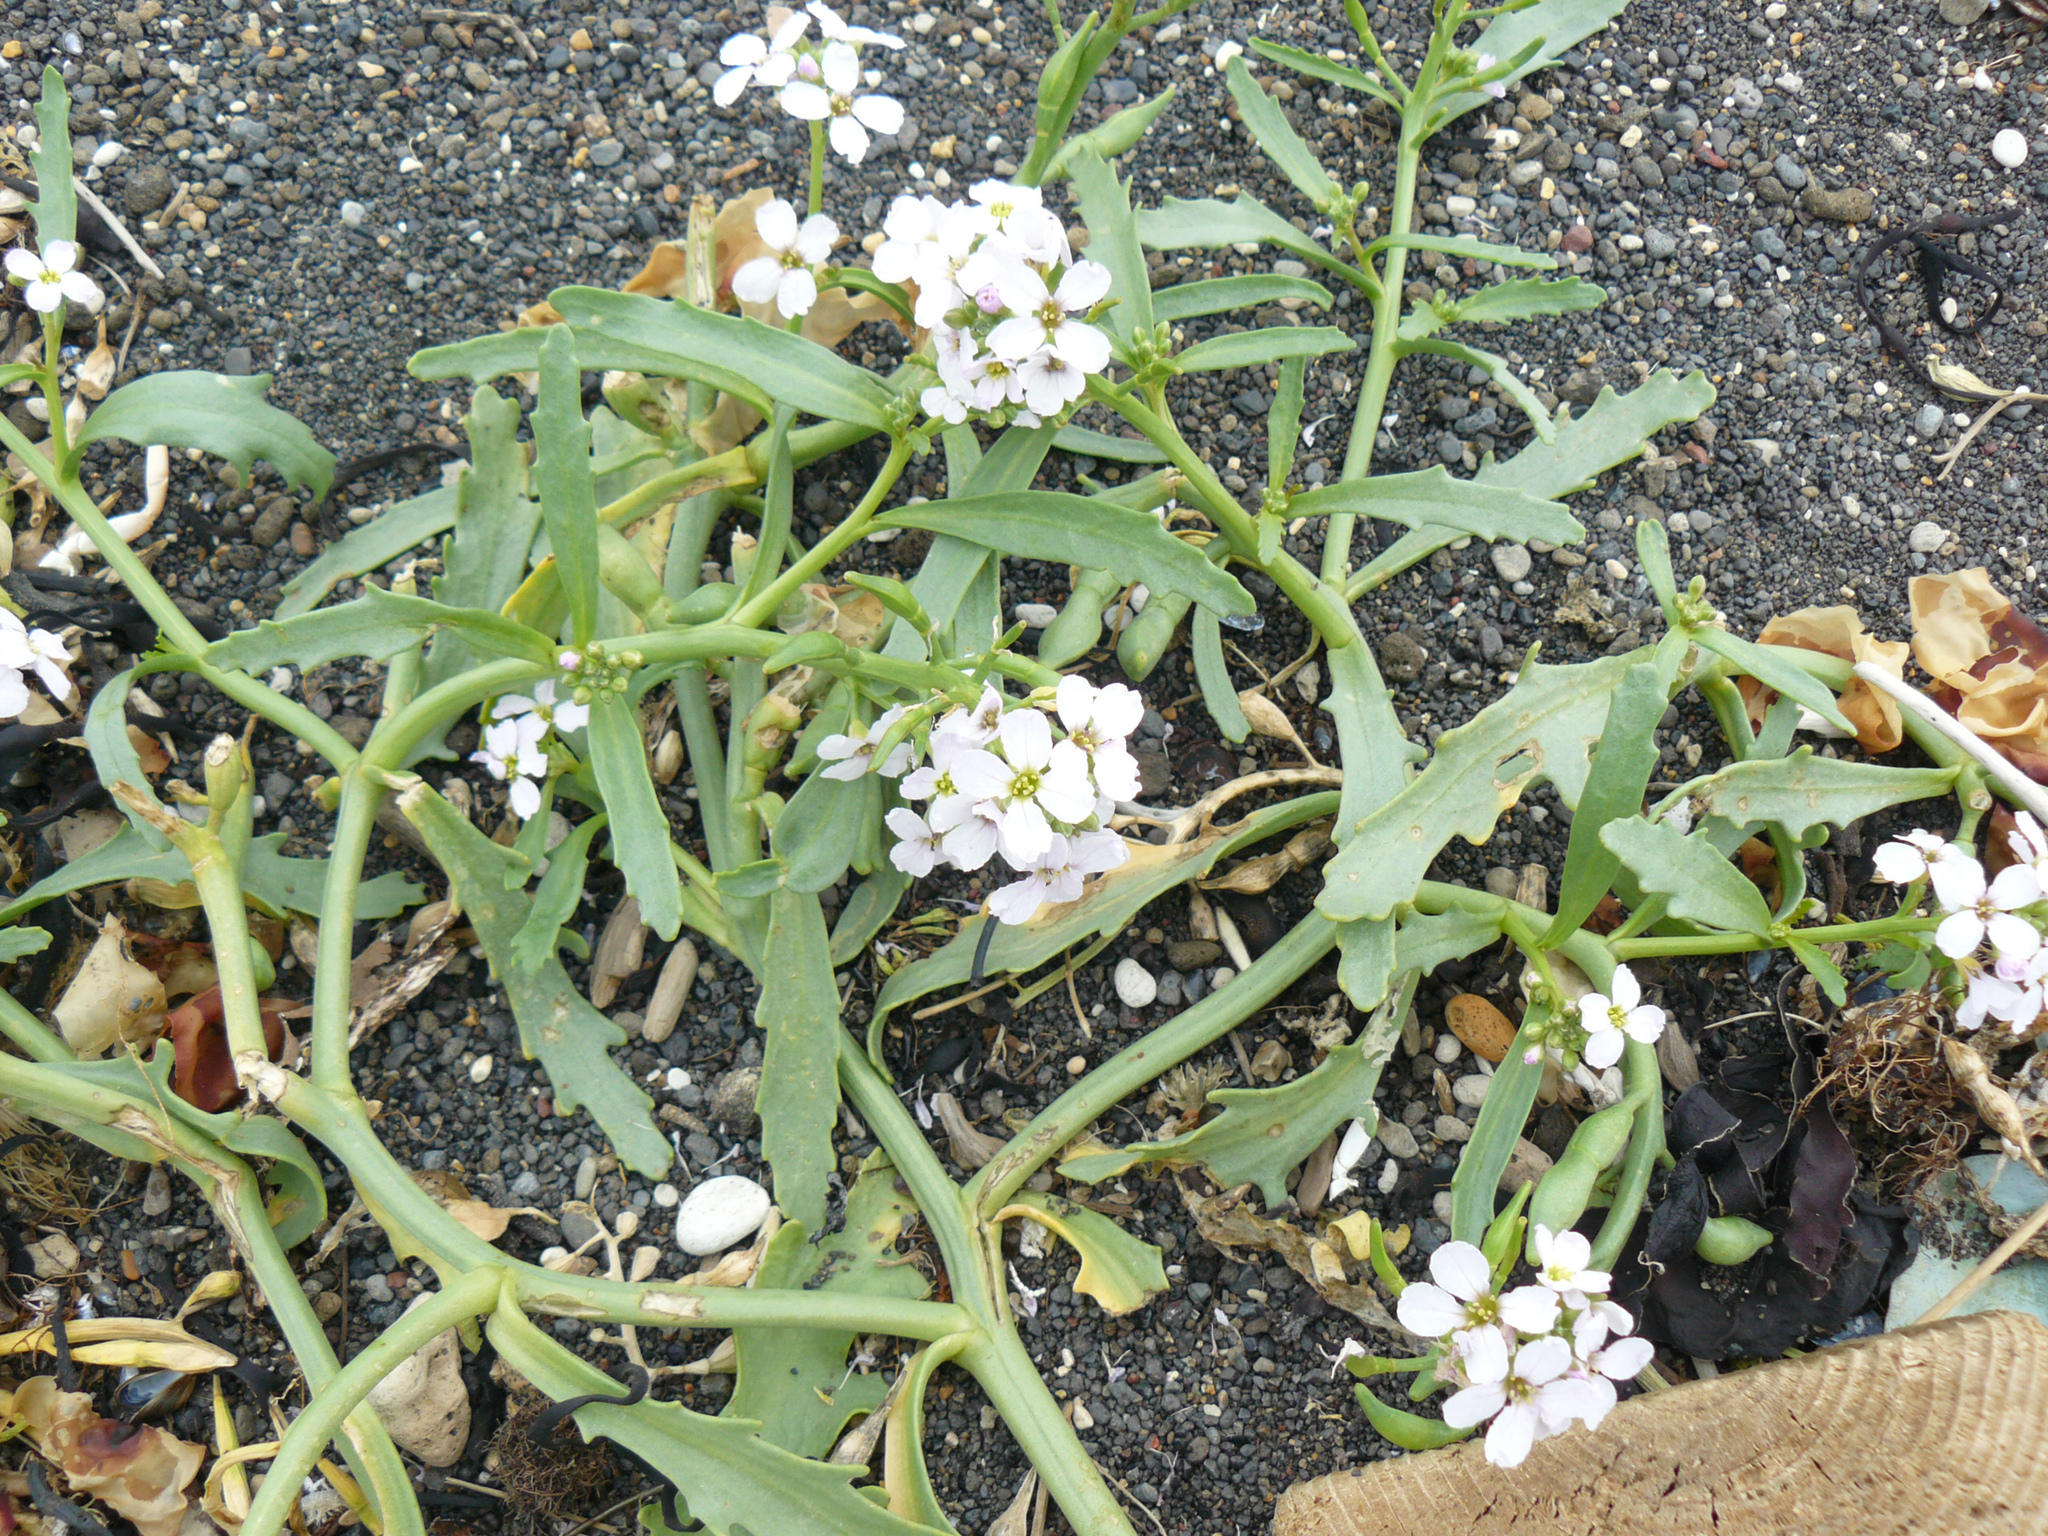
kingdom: Plantae
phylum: Tracheophyta
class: Magnoliopsida
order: Brassicales
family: Brassicaceae
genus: Cakile
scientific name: Cakile maritima
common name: Sea rocket
